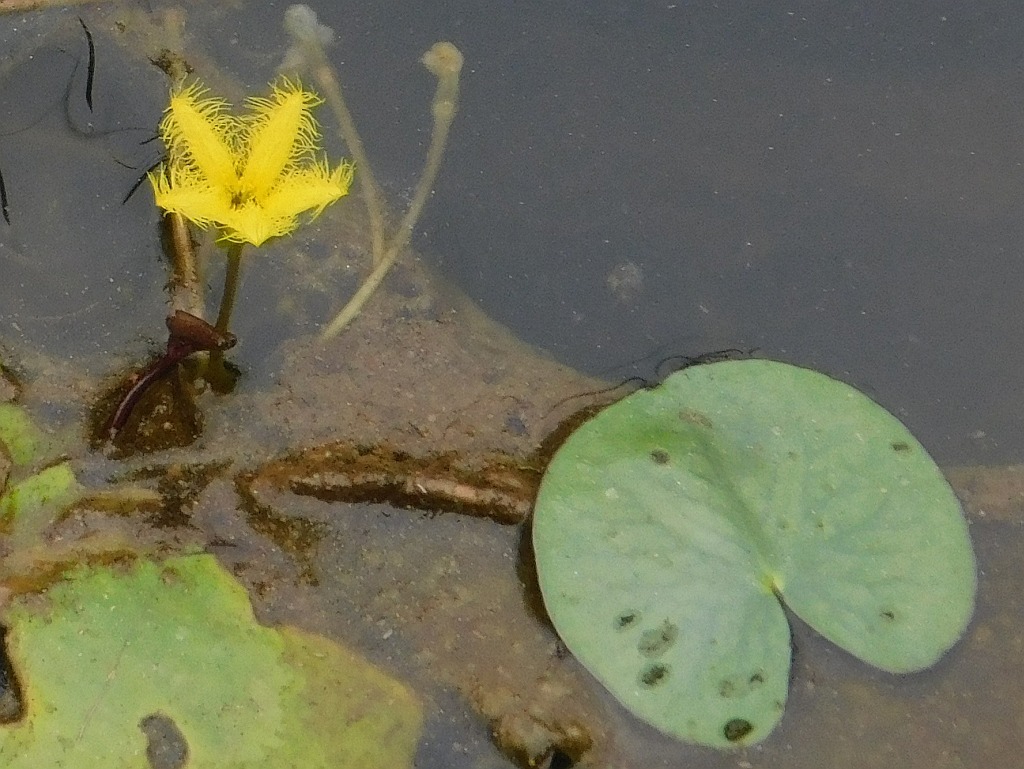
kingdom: Plantae
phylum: Tracheophyta
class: Magnoliopsida
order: Asterales
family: Menyanthaceae
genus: Nymphoides
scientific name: Nymphoides thunbergiana
